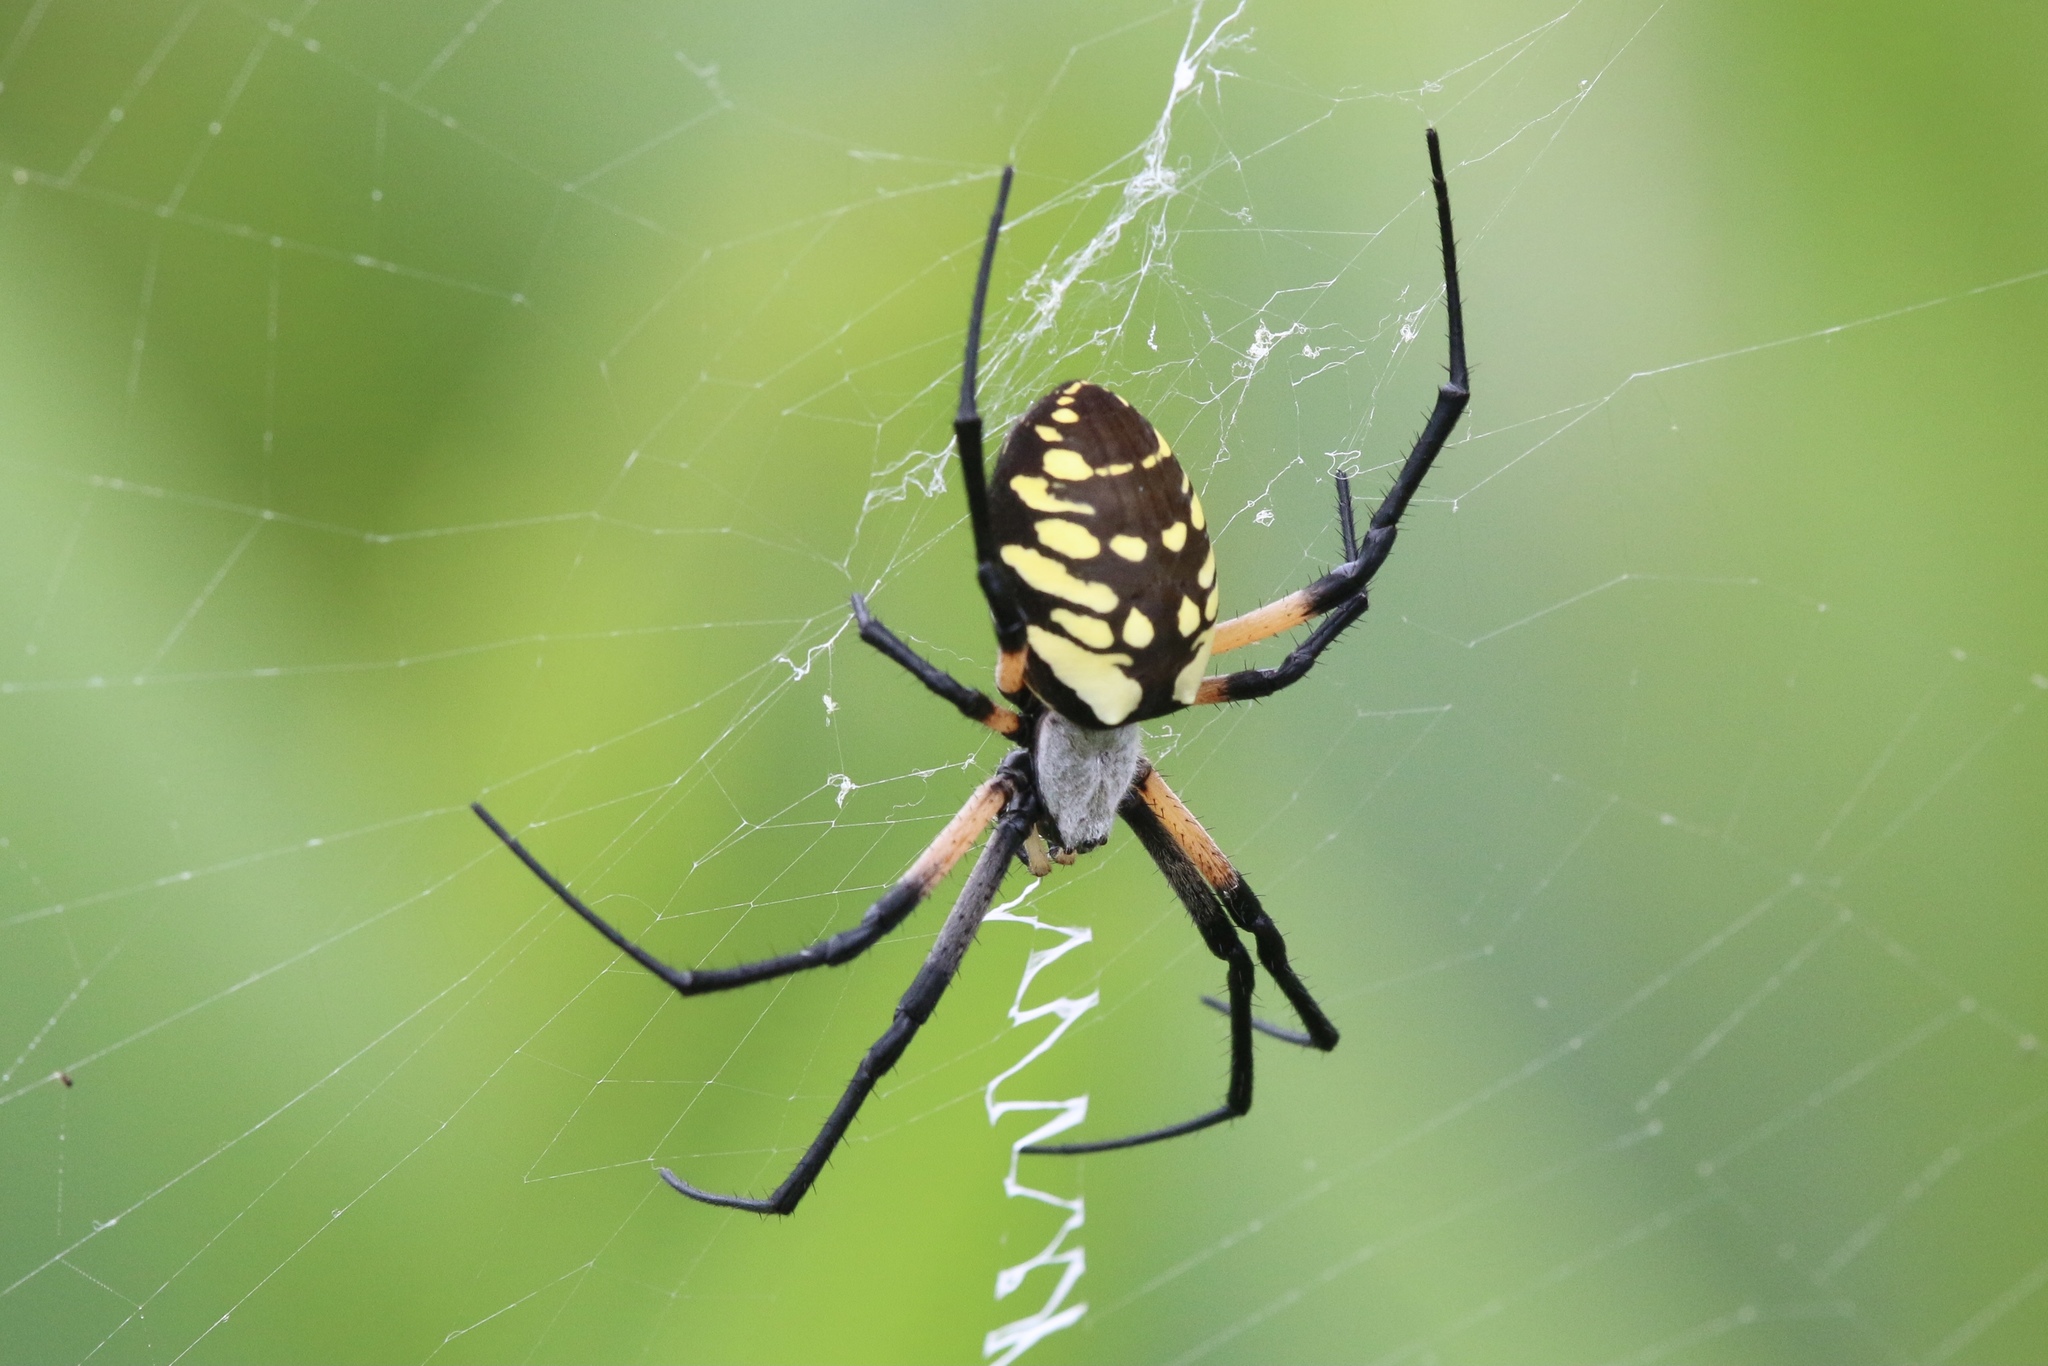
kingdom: Animalia
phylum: Arthropoda
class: Arachnida
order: Araneae
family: Araneidae
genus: Argiope
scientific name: Argiope aurantia
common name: Orb weavers
